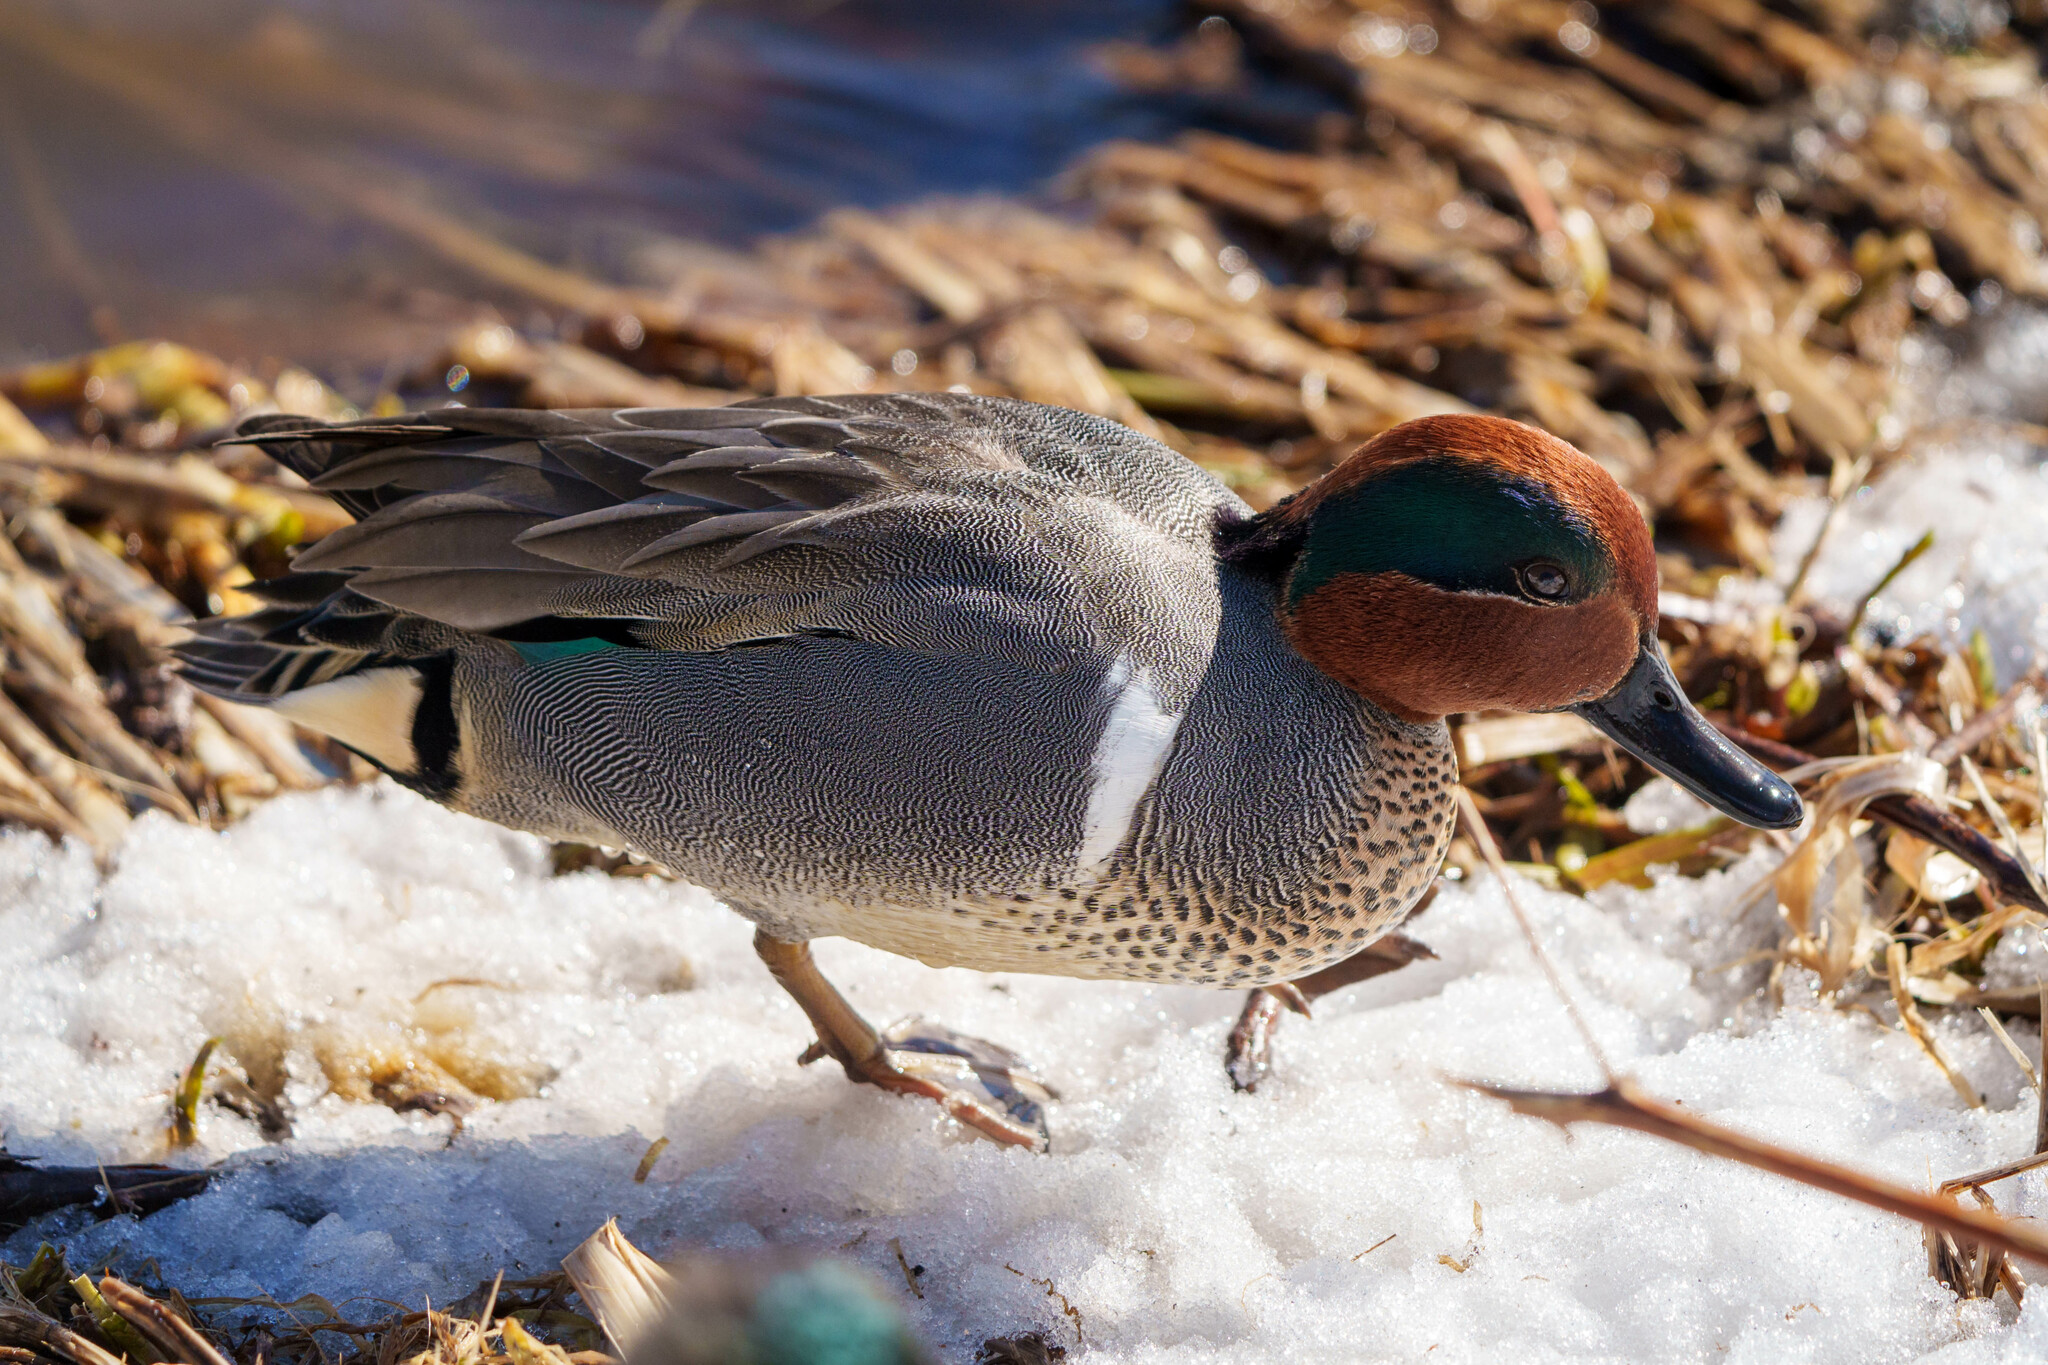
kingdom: Animalia
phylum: Chordata
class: Aves
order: Anseriformes
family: Anatidae
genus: Anas
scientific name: Anas carolinensis
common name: Green-winged teal
